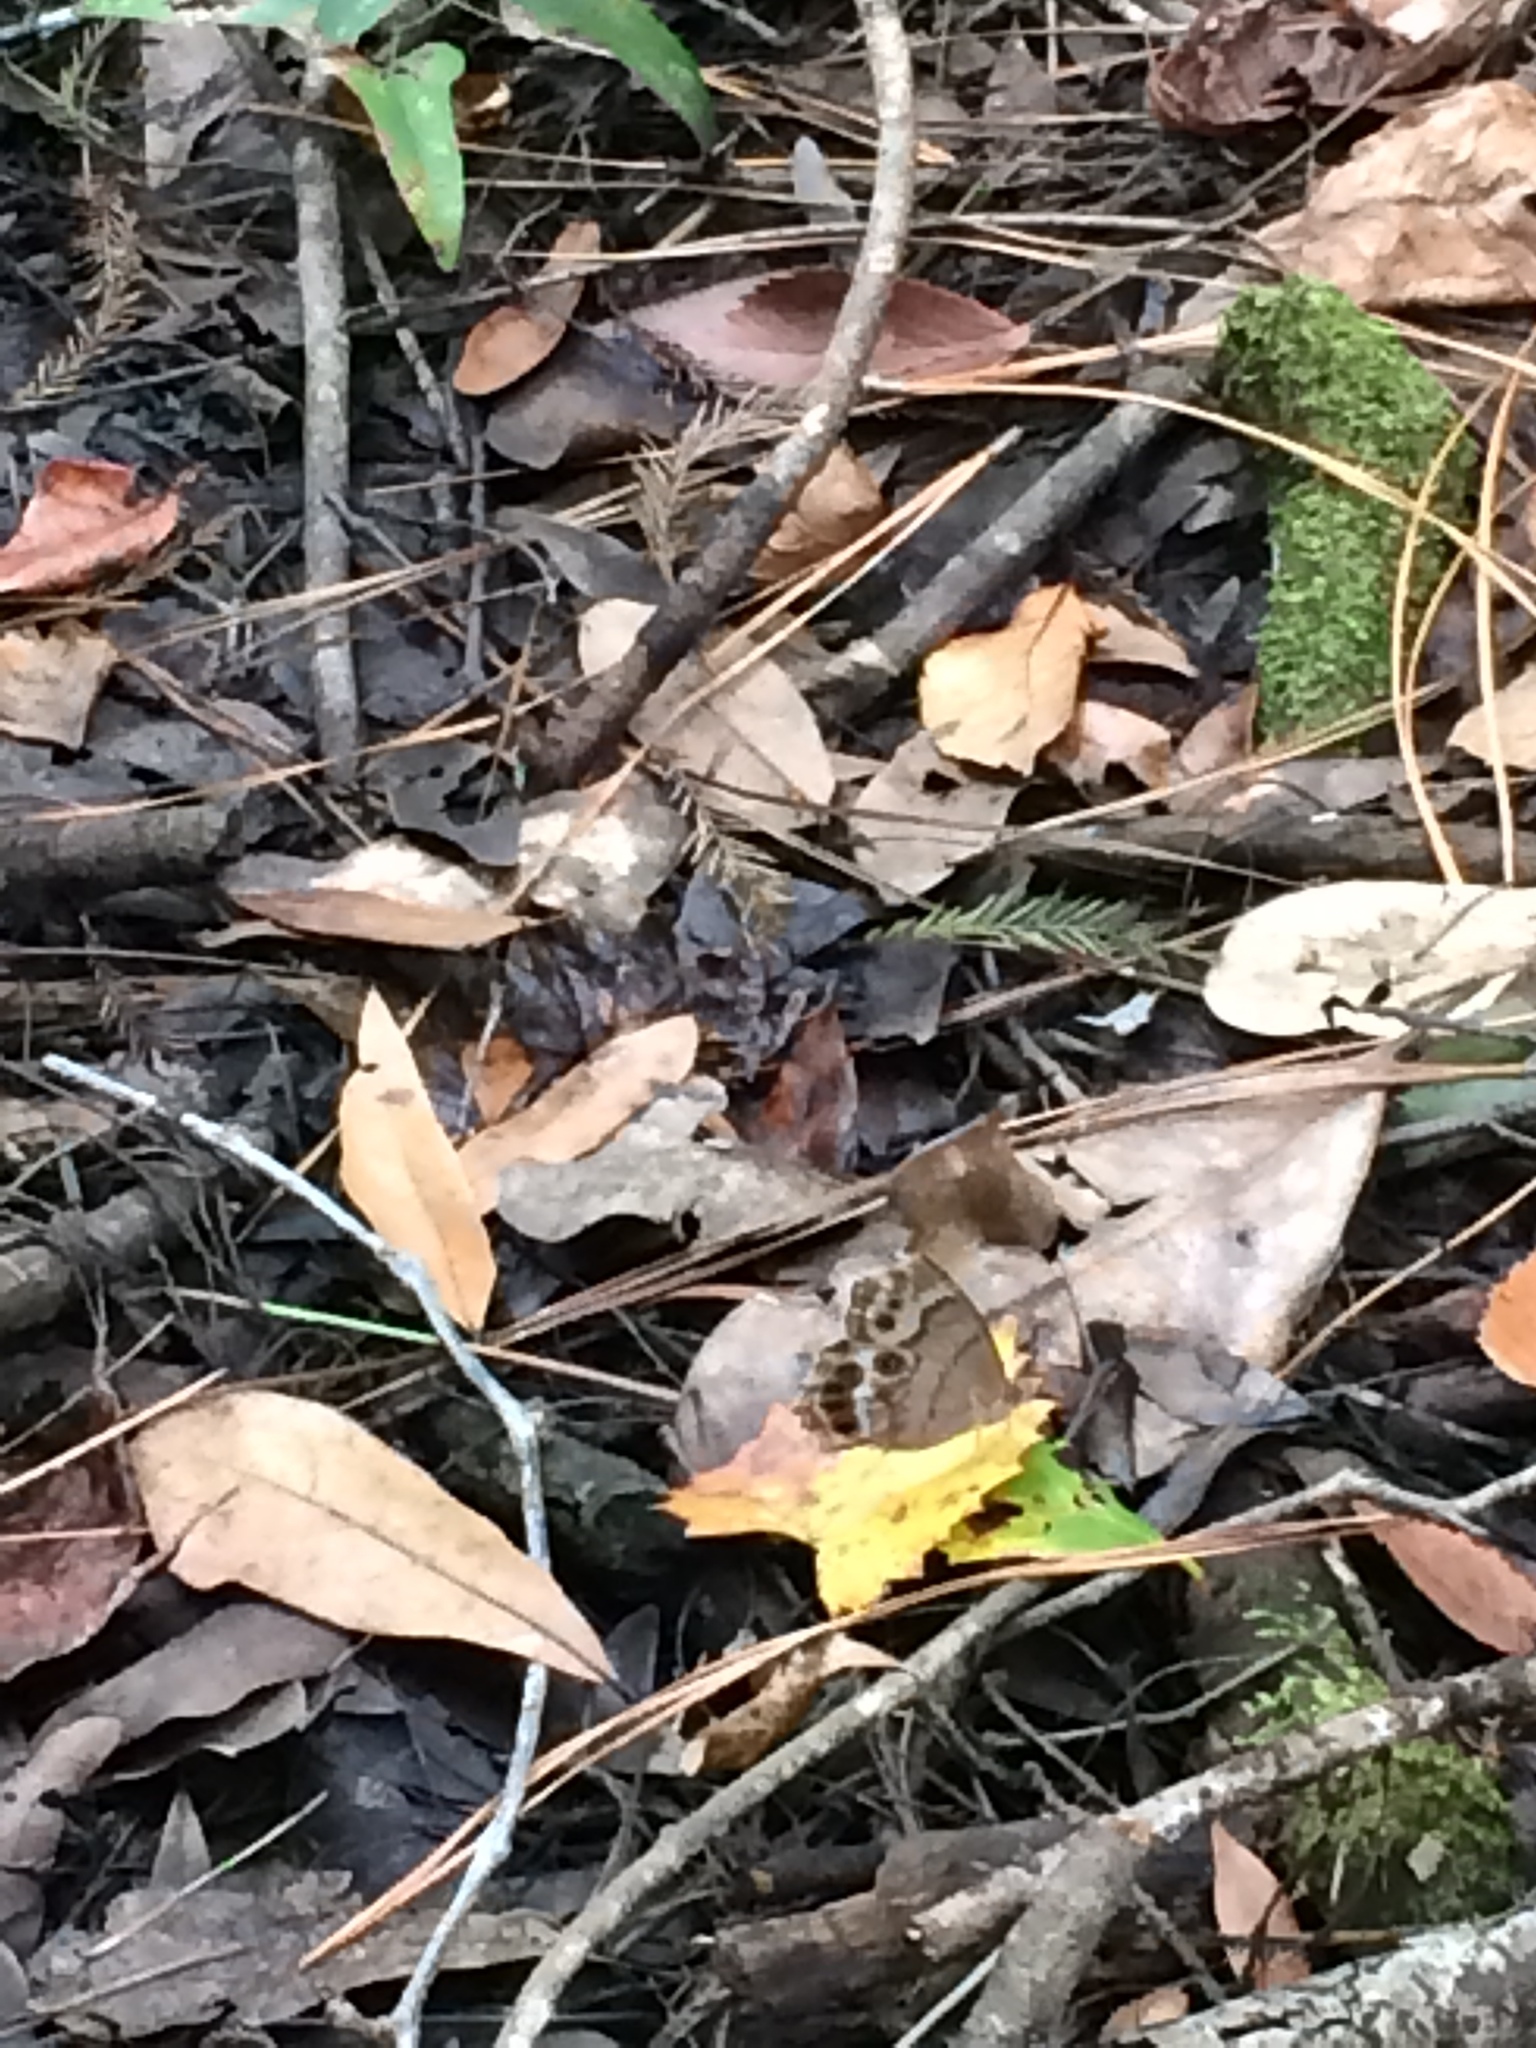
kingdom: Animalia
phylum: Arthropoda
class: Insecta
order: Lepidoptera
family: Nymphalidae
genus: Enodia
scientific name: Enodia portlandia
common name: Southern pearly-eye
